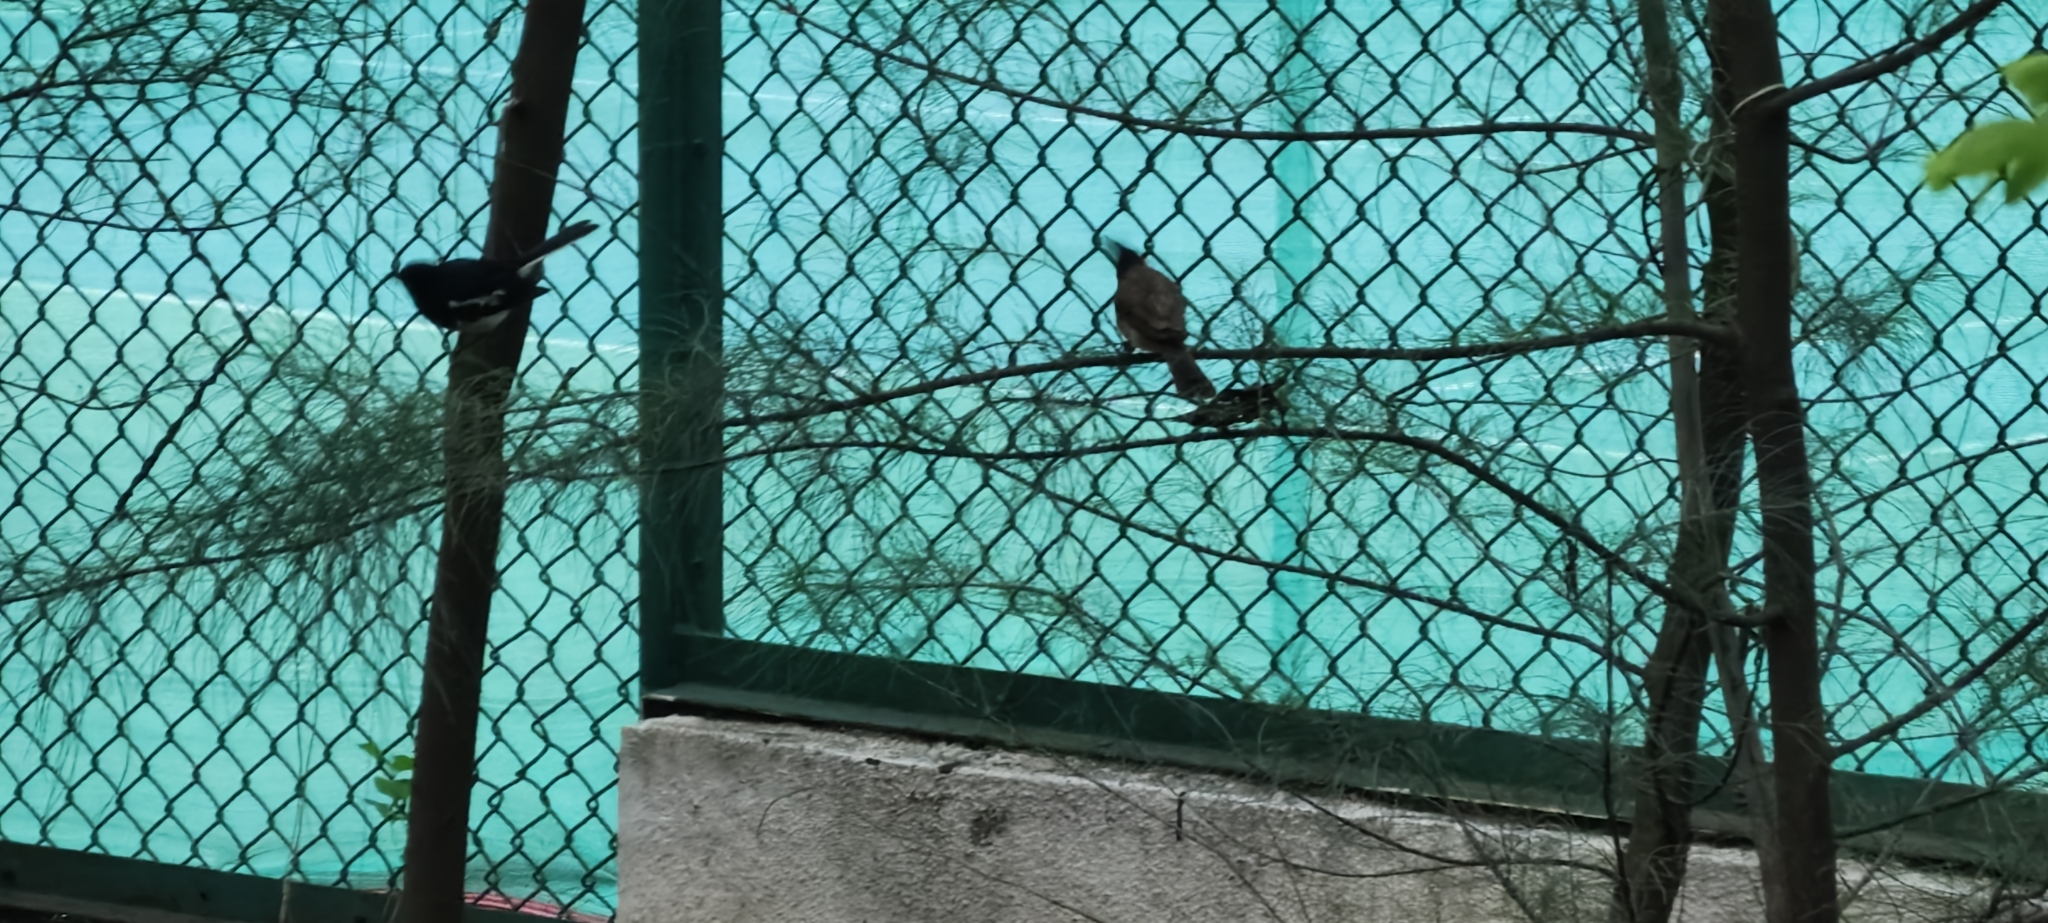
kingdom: Animalia
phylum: Chordata
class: Aves
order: Passeriformes
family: Muscicapidae
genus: Copsychus
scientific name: Copsychus saularis
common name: Oriental magpie-robin
